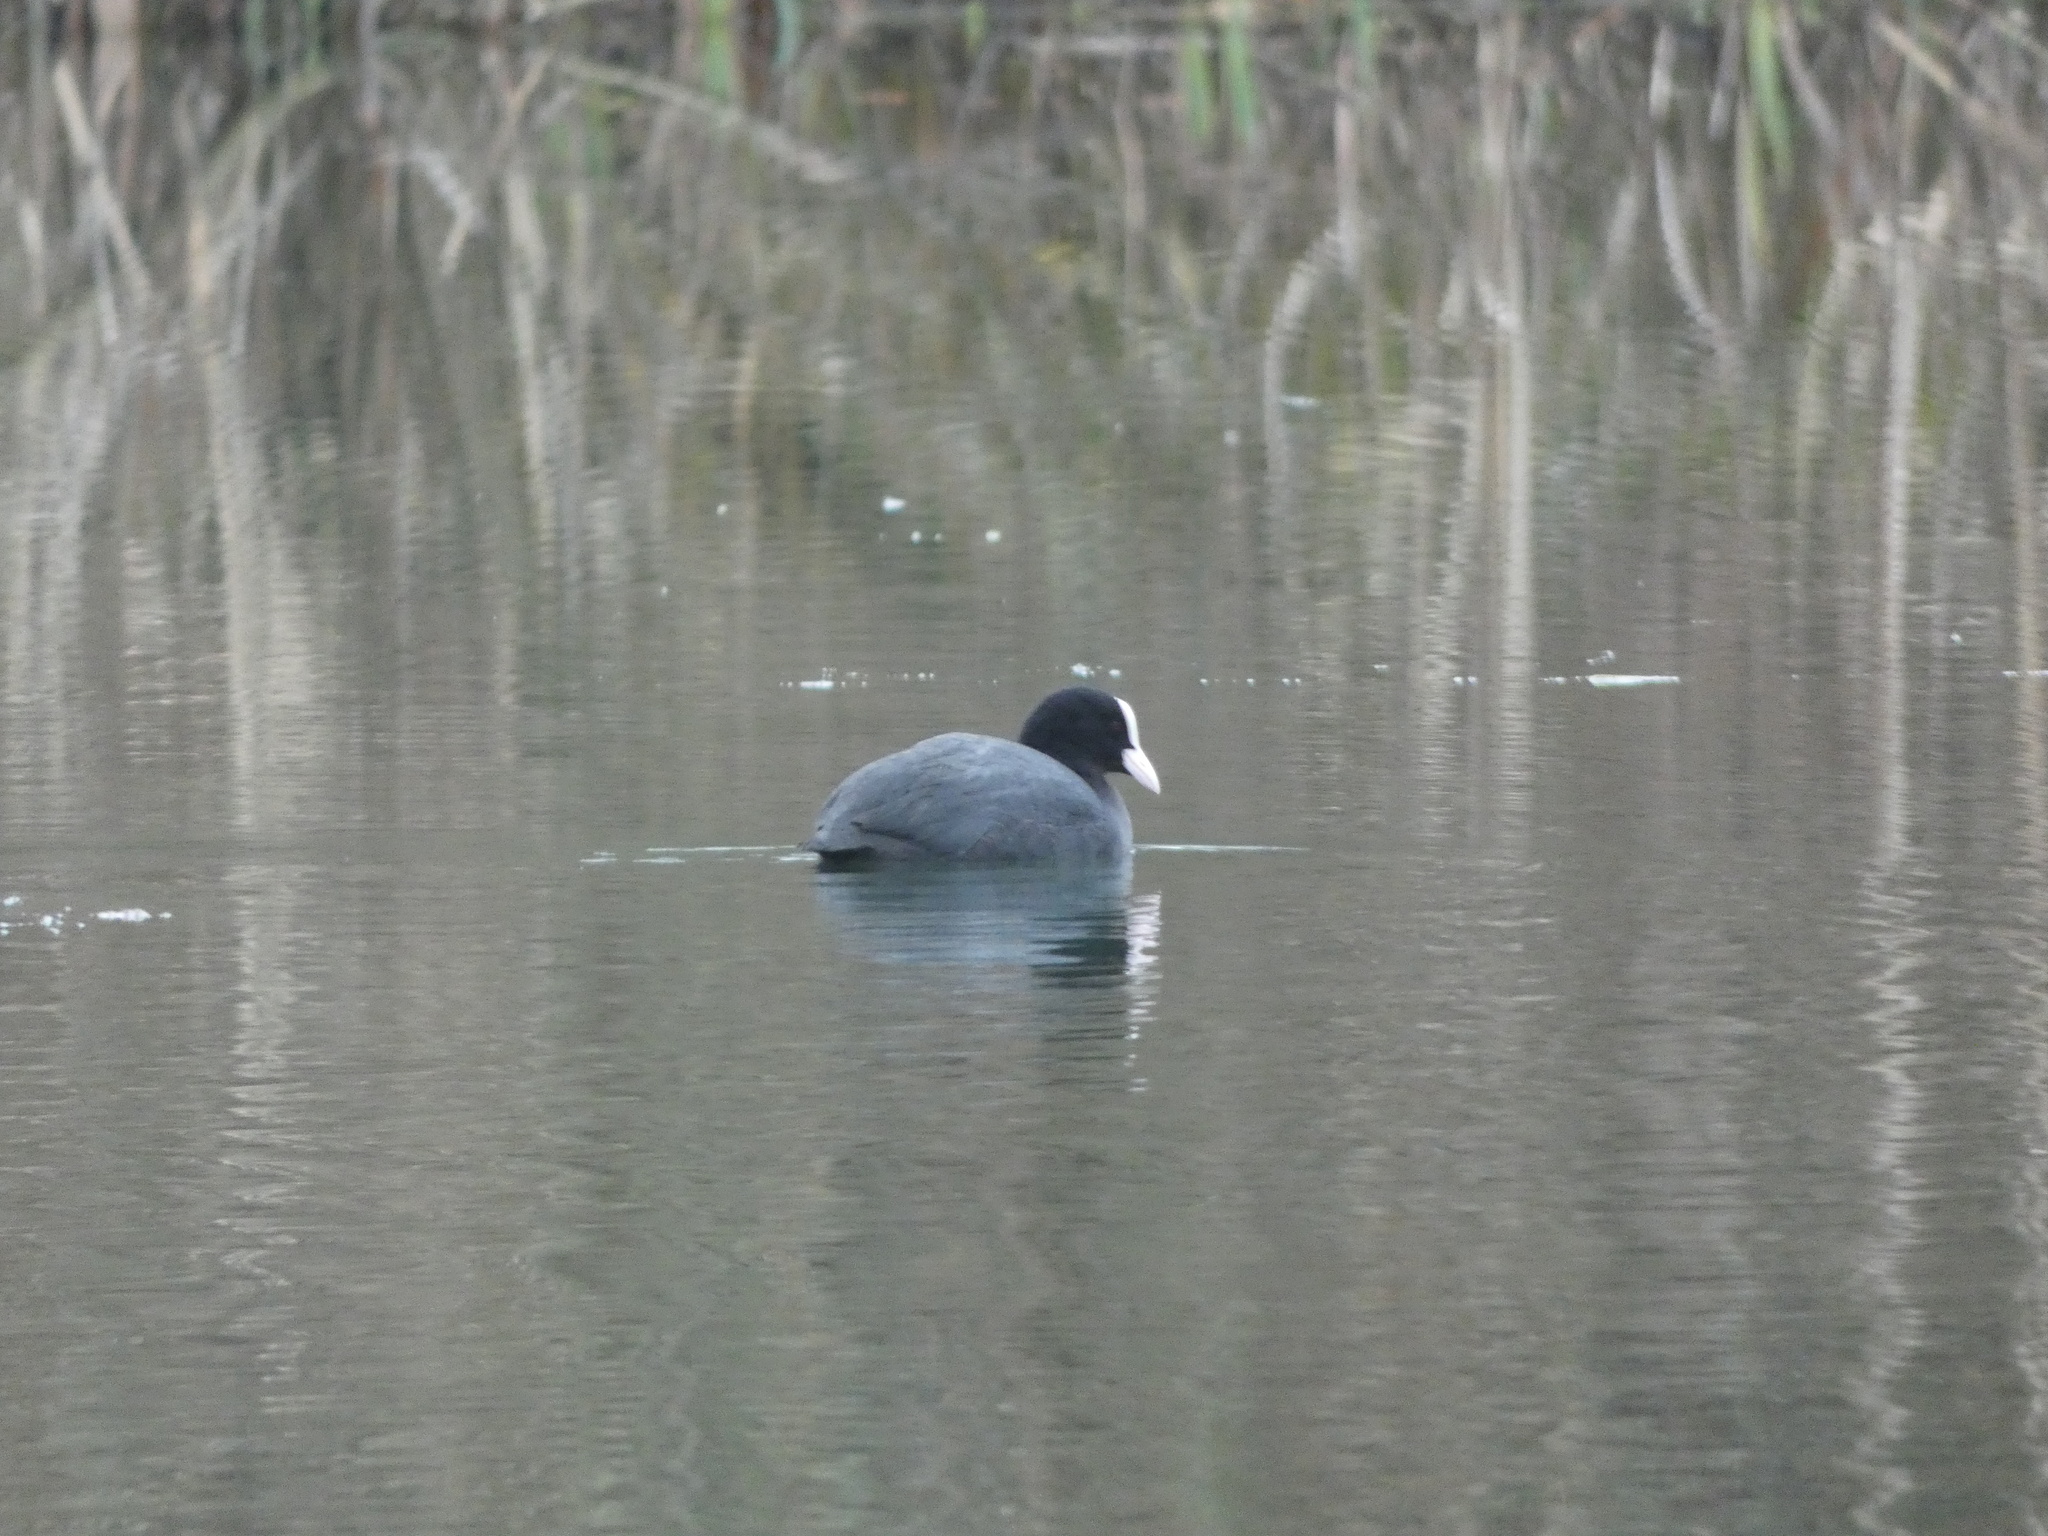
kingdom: Animalia
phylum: Chordata
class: Aves
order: Gruiformes
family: Rallidae
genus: Fulica
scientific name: Fulica atra
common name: Eurasian coot
